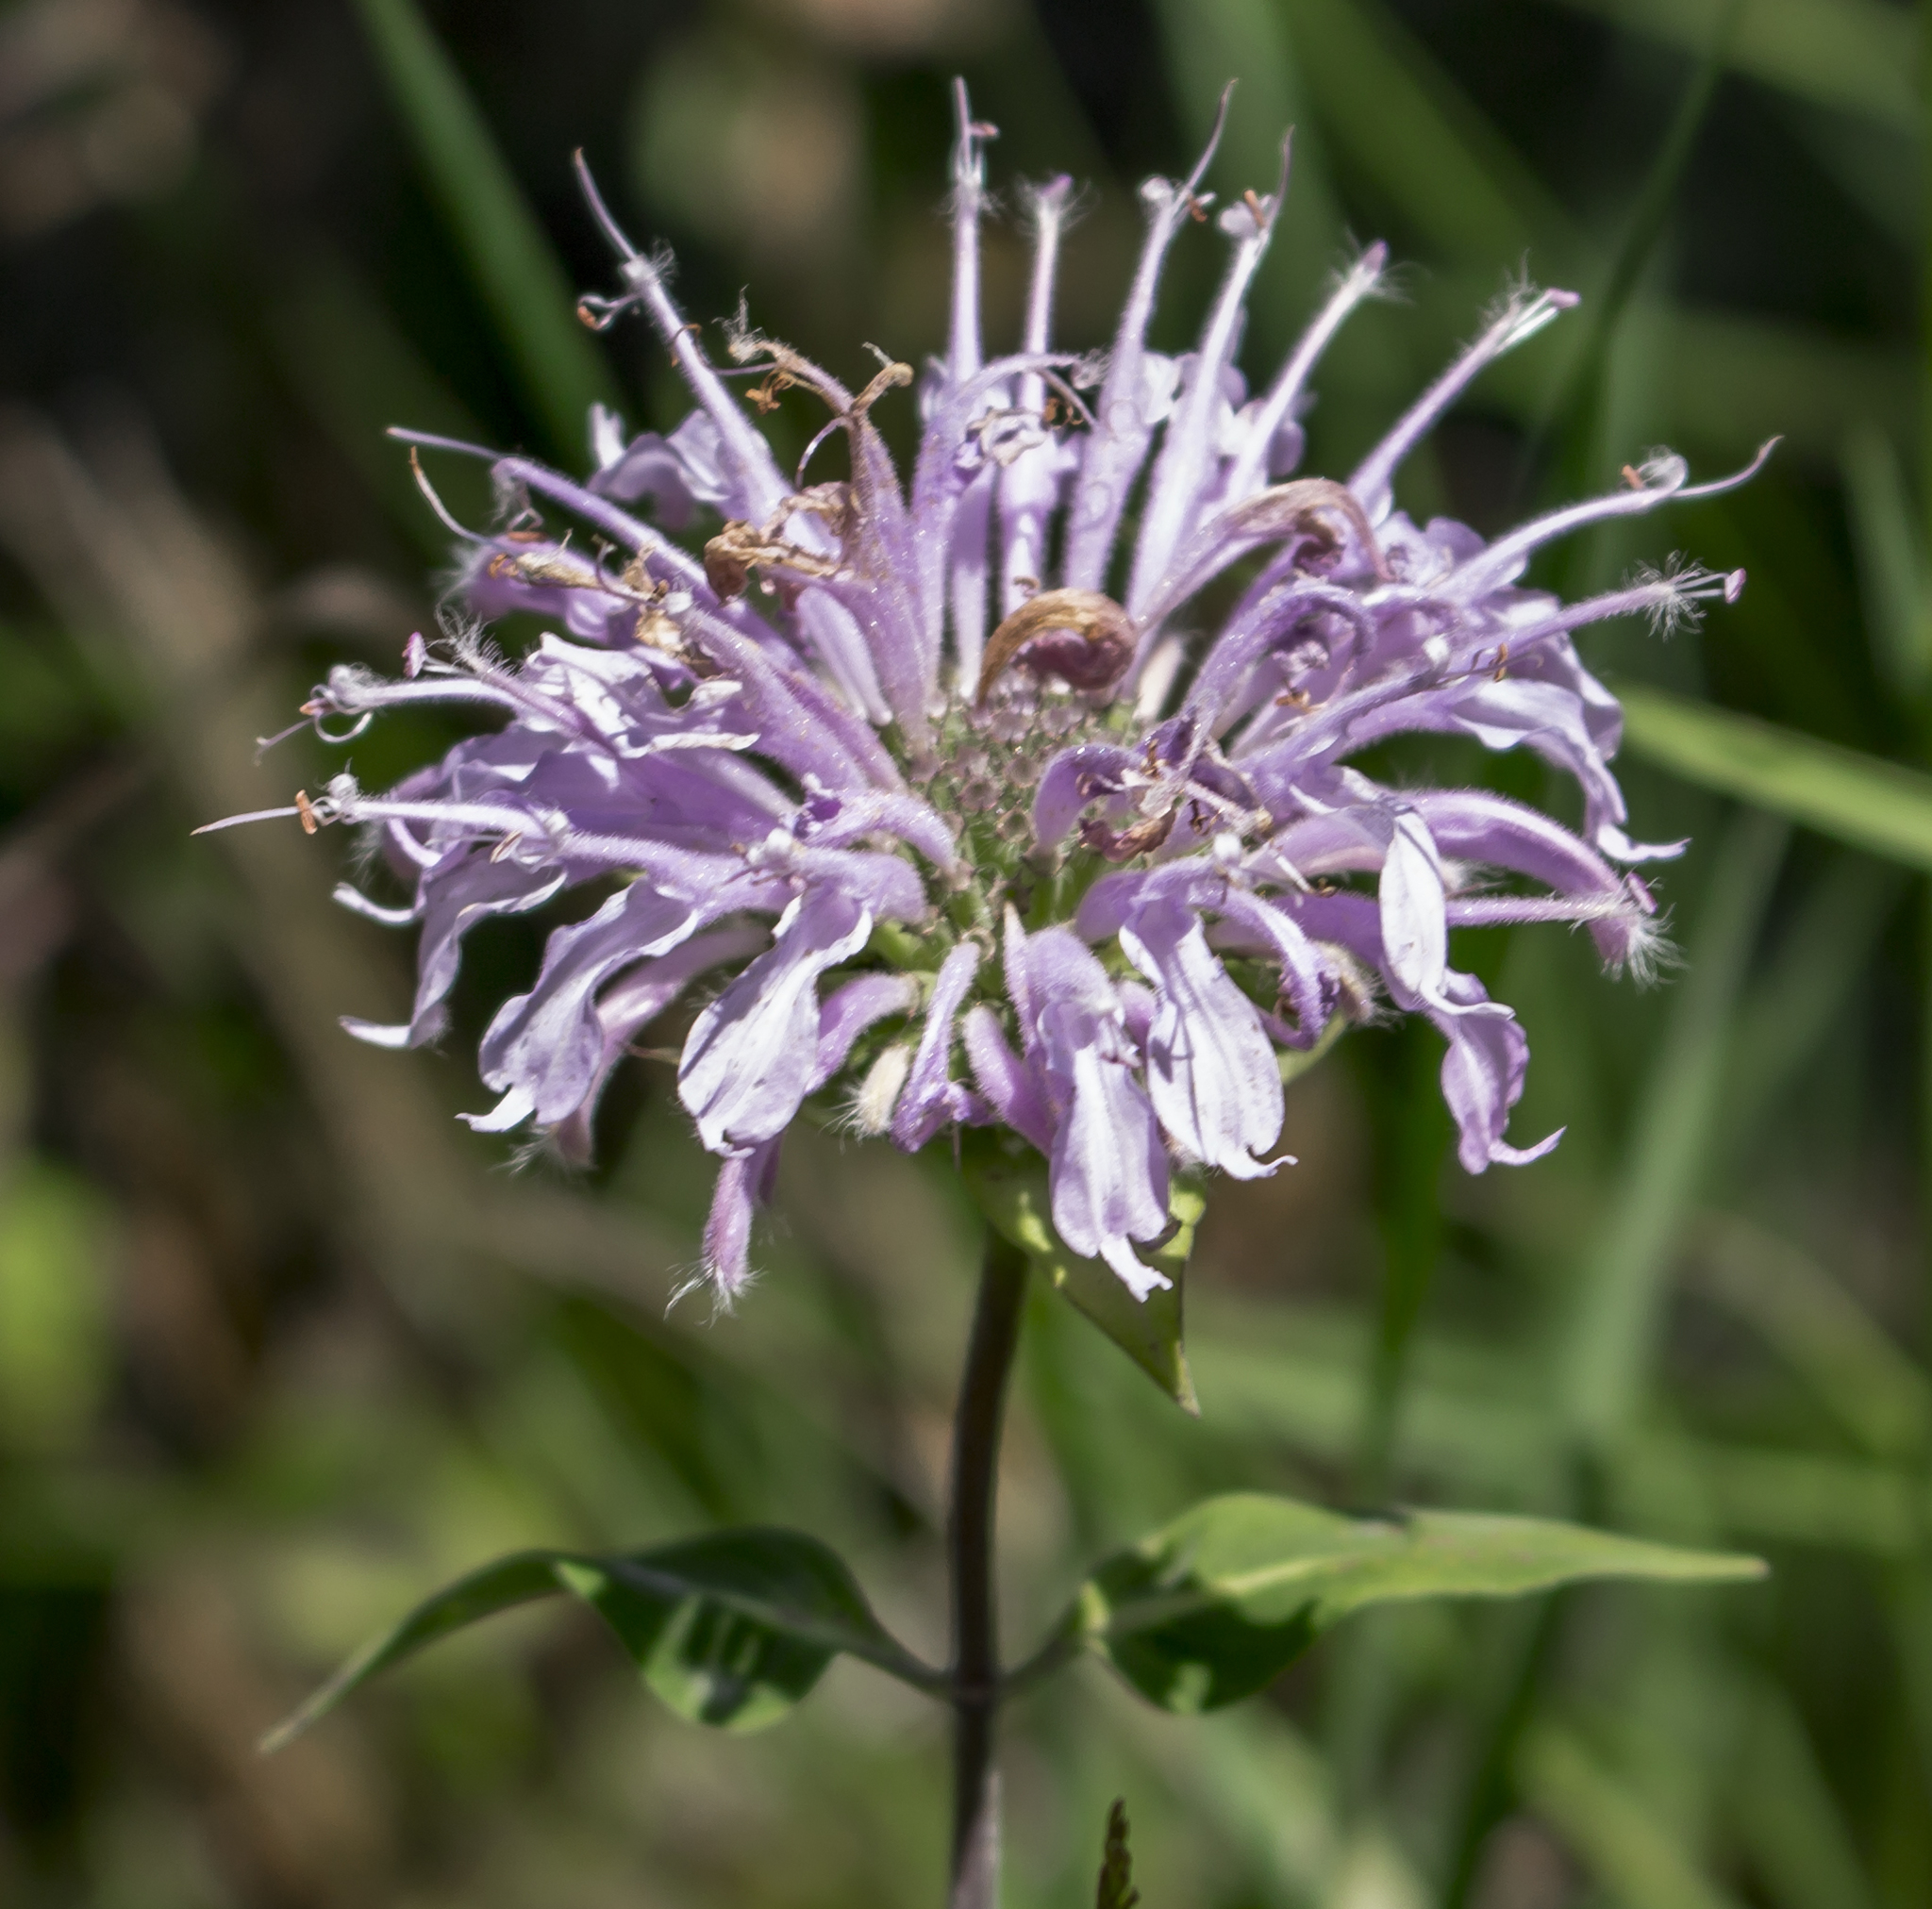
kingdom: Plantae
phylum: Tracheophyta
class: Magnoliopsida
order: Lamiales
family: Lamiaceae
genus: Monarda
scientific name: Monarda fistulosa
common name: Purple beebalm
